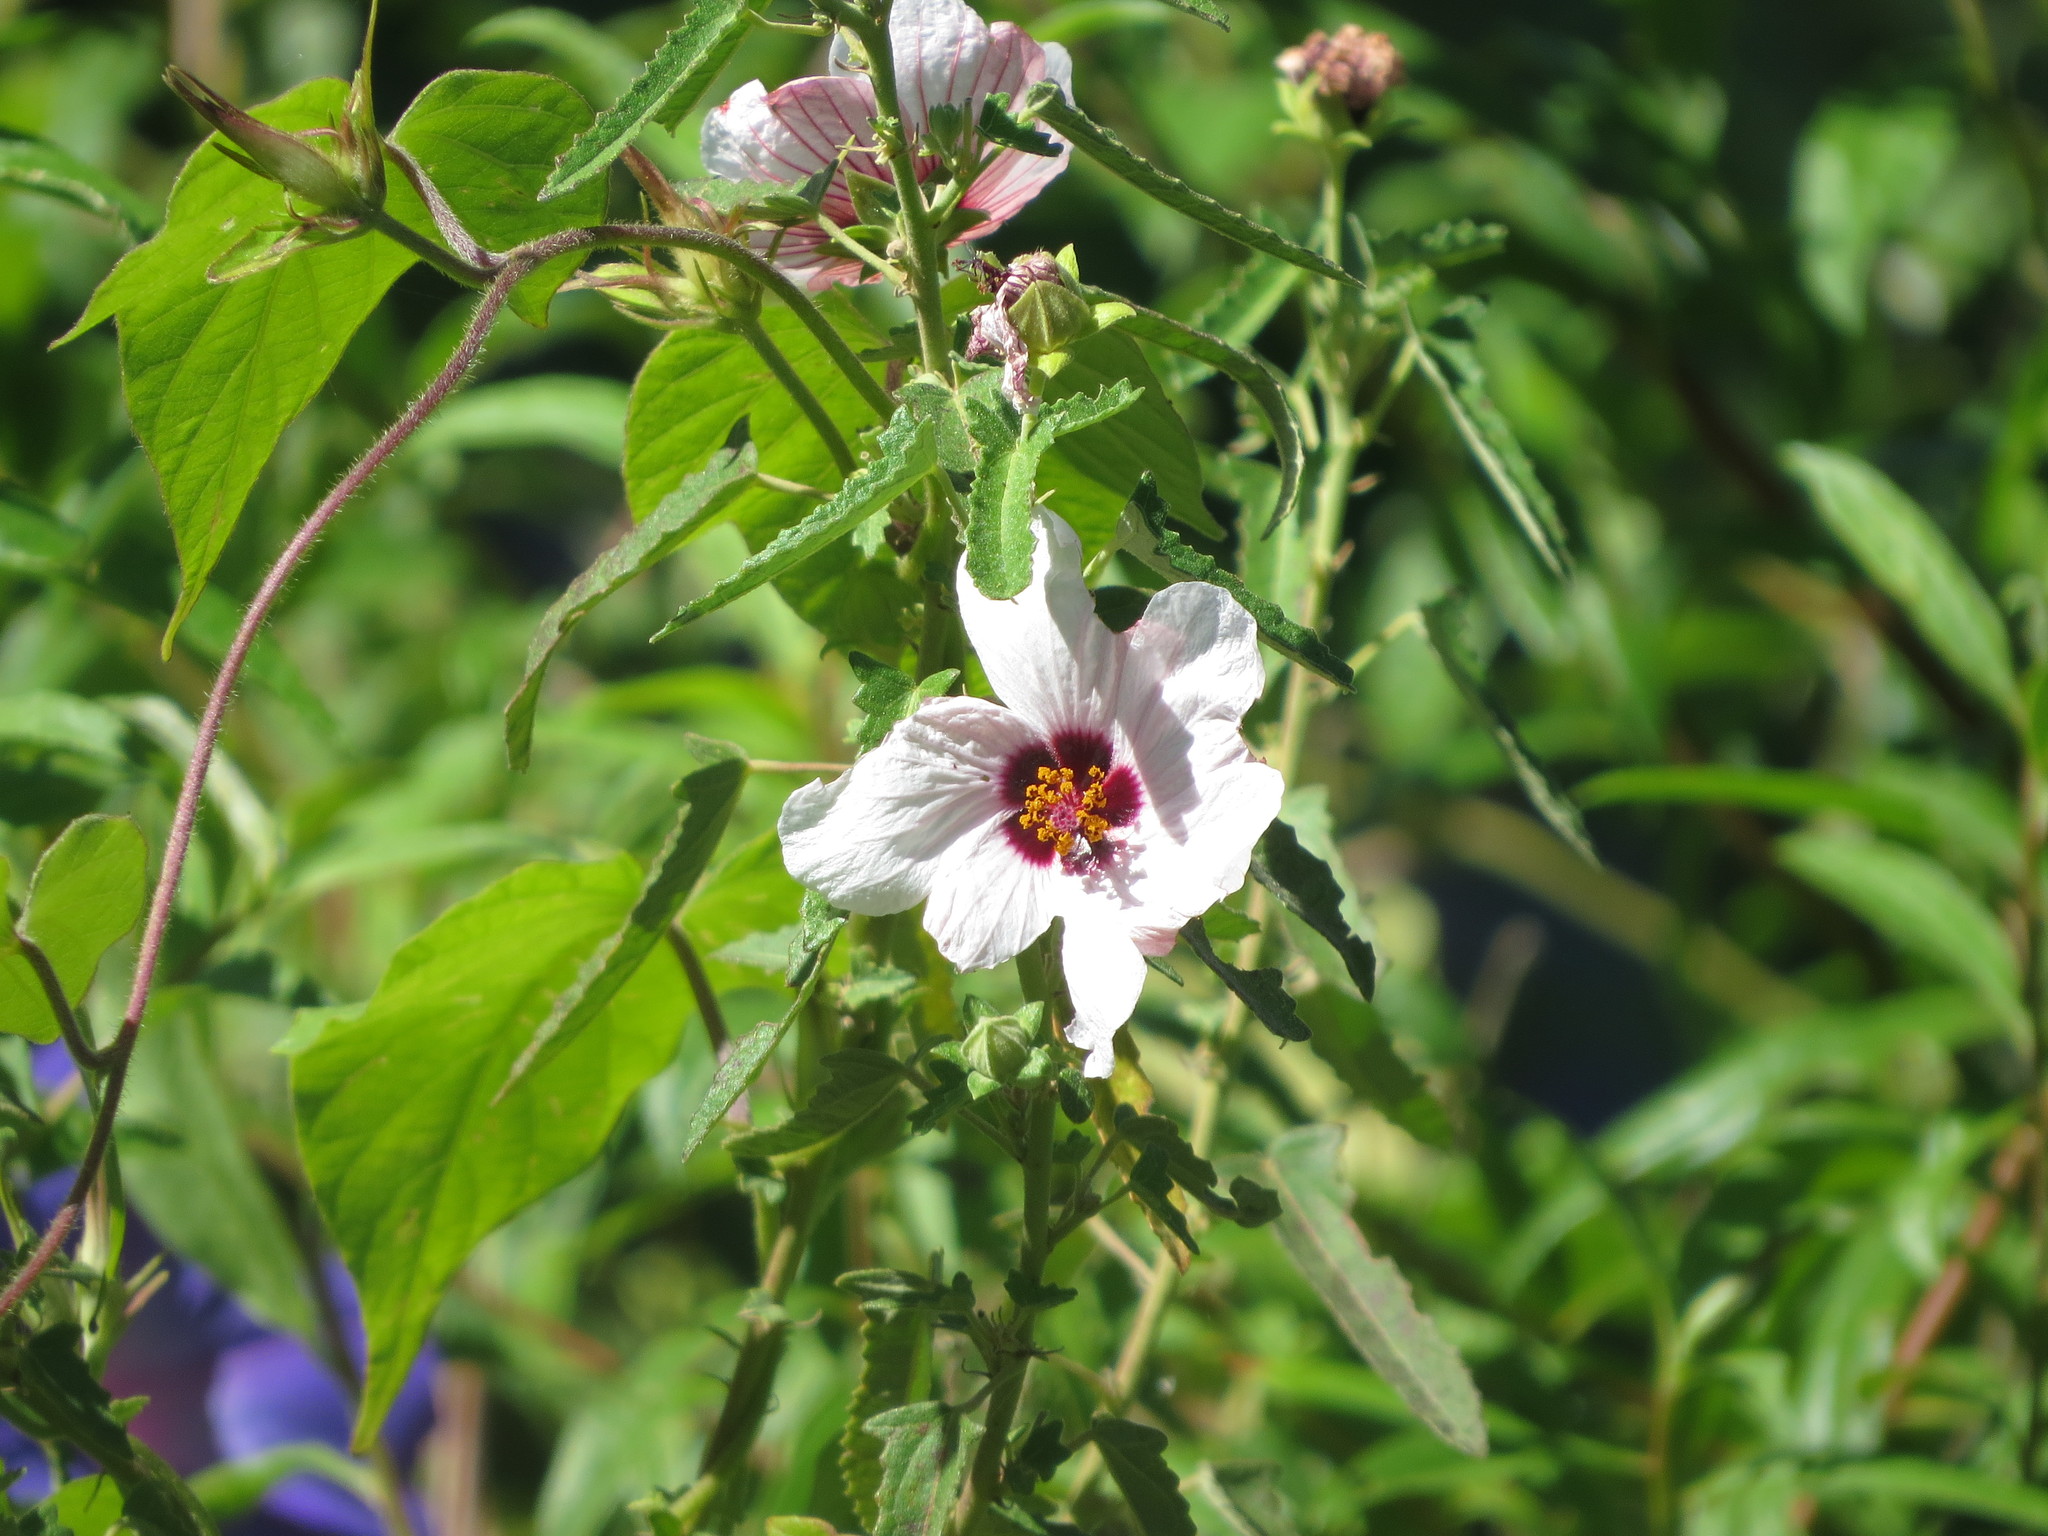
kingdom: Plantae
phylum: Tracheophyta
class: Magnoliopsida
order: Malvales
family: Malvaceae
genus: Pavonia
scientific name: Pavonia hastata
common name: Spearleaf swampmallow
